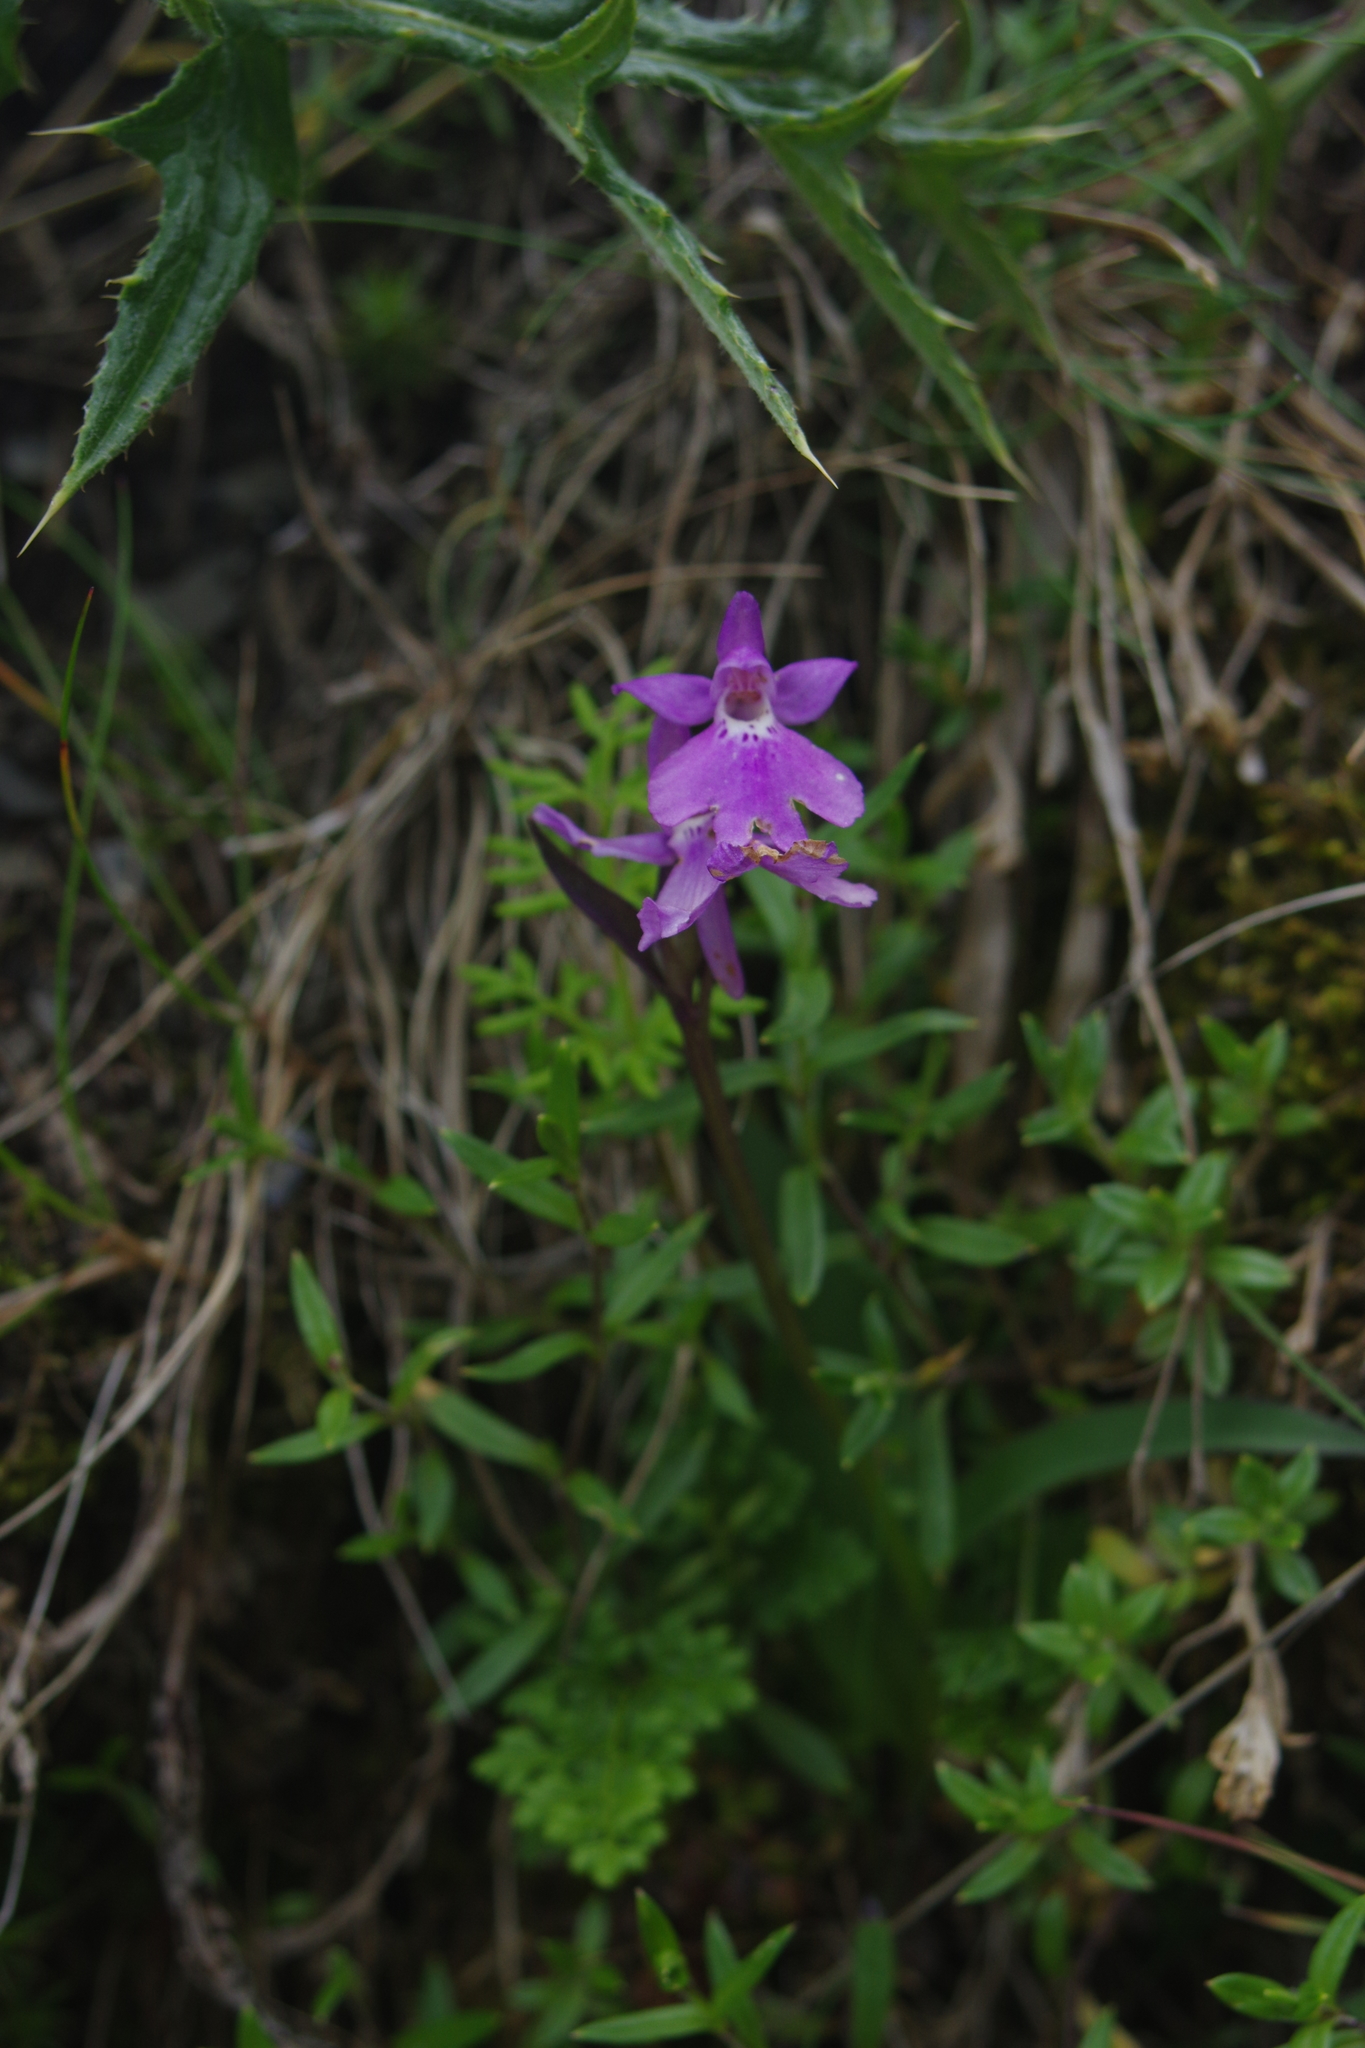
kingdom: Plantae
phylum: Tracheophyta
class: Liliopsida
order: Asparagales
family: Orchidaceae
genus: Hemipilia
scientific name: Hemipilia kiraishiensis
